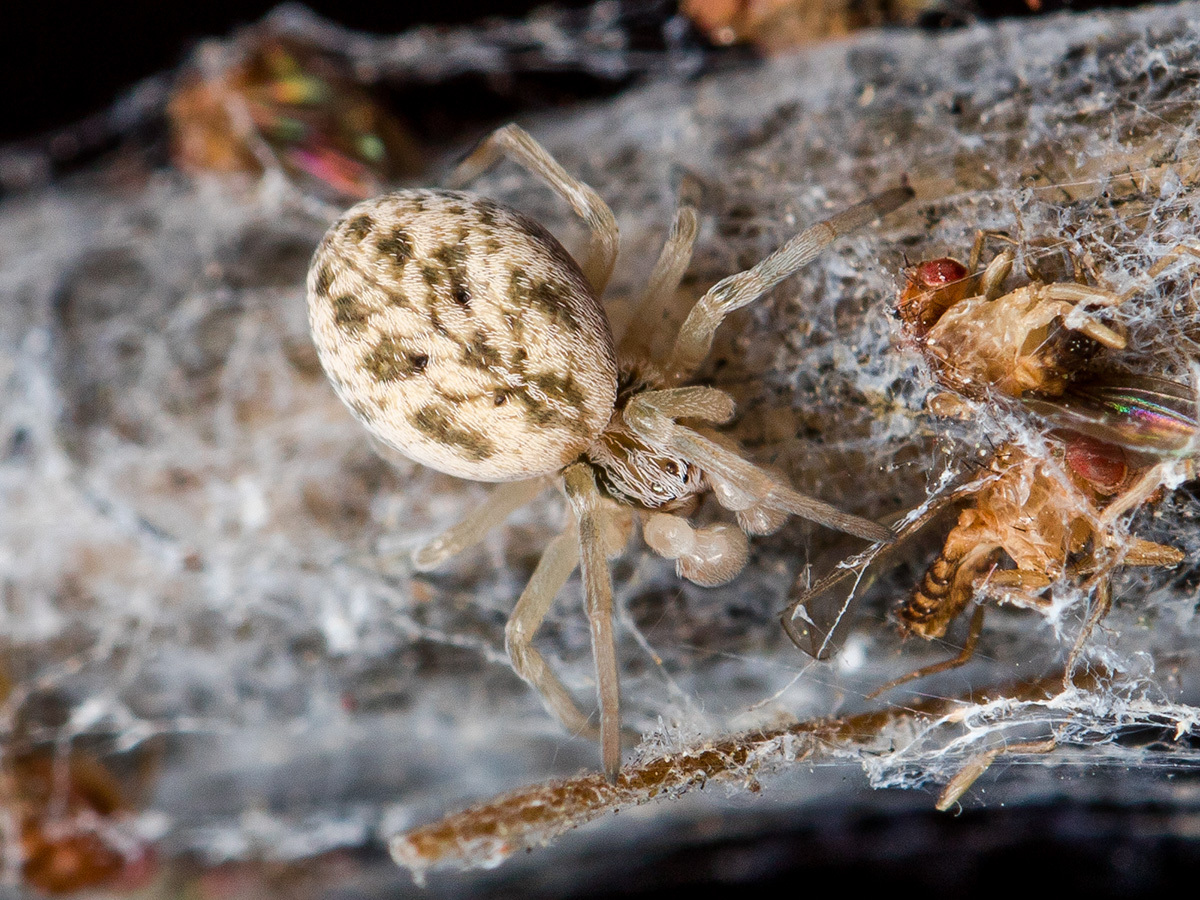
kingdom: Animalia
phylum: Arthropoda
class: Arachnida
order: Araneae
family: Dictynidae
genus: Dictynomorpha
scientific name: Dictynomorpha strandi
